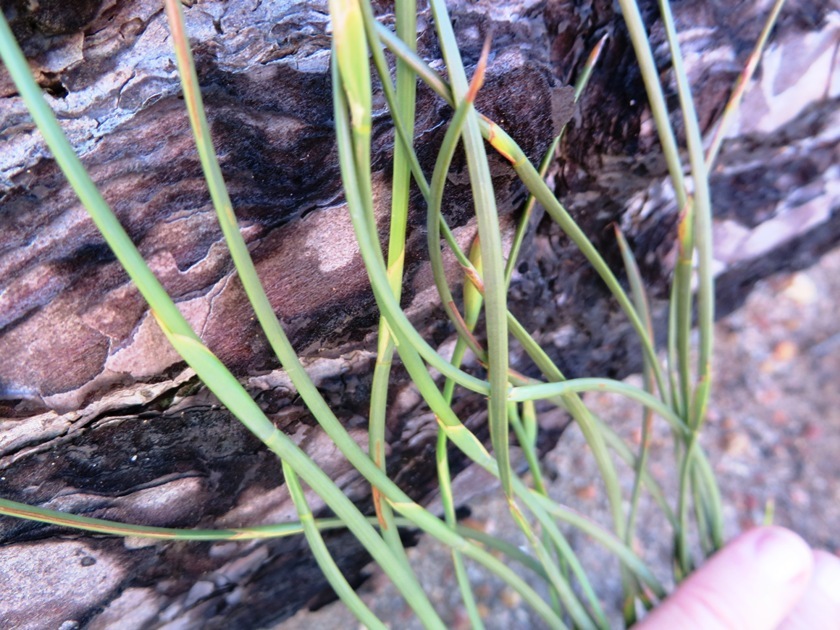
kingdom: Plantae
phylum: Tracheophyta
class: Liliopsida
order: Poales
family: Restionaceae
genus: Hypodiscus
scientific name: Hypodiscus willdenowia
